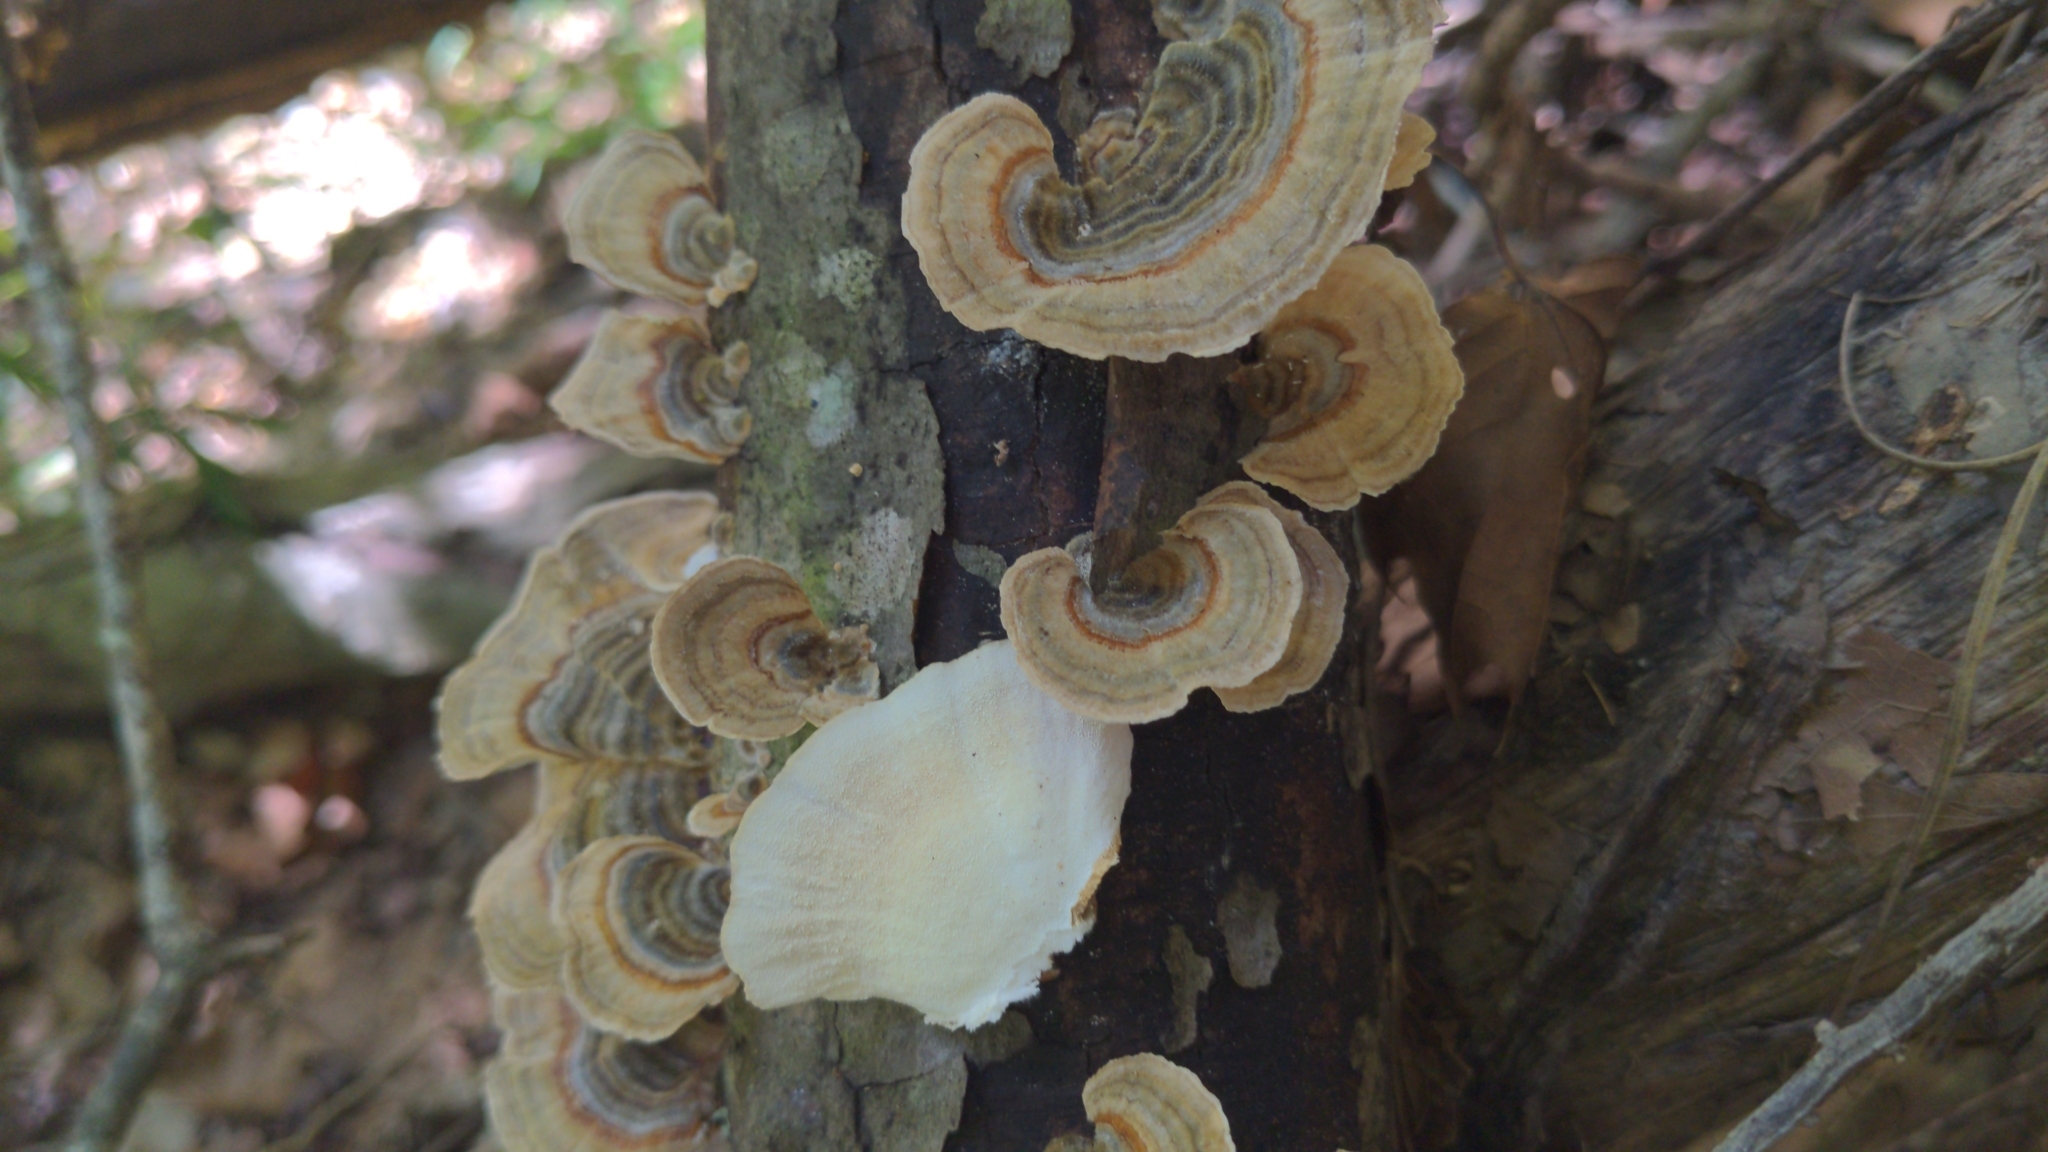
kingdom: Fungi
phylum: Basidiomycota
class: Agaricomycetes
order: Polyporales
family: Polyporaceae
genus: Trametes
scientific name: Trametes versicolor
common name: Turkeytail
